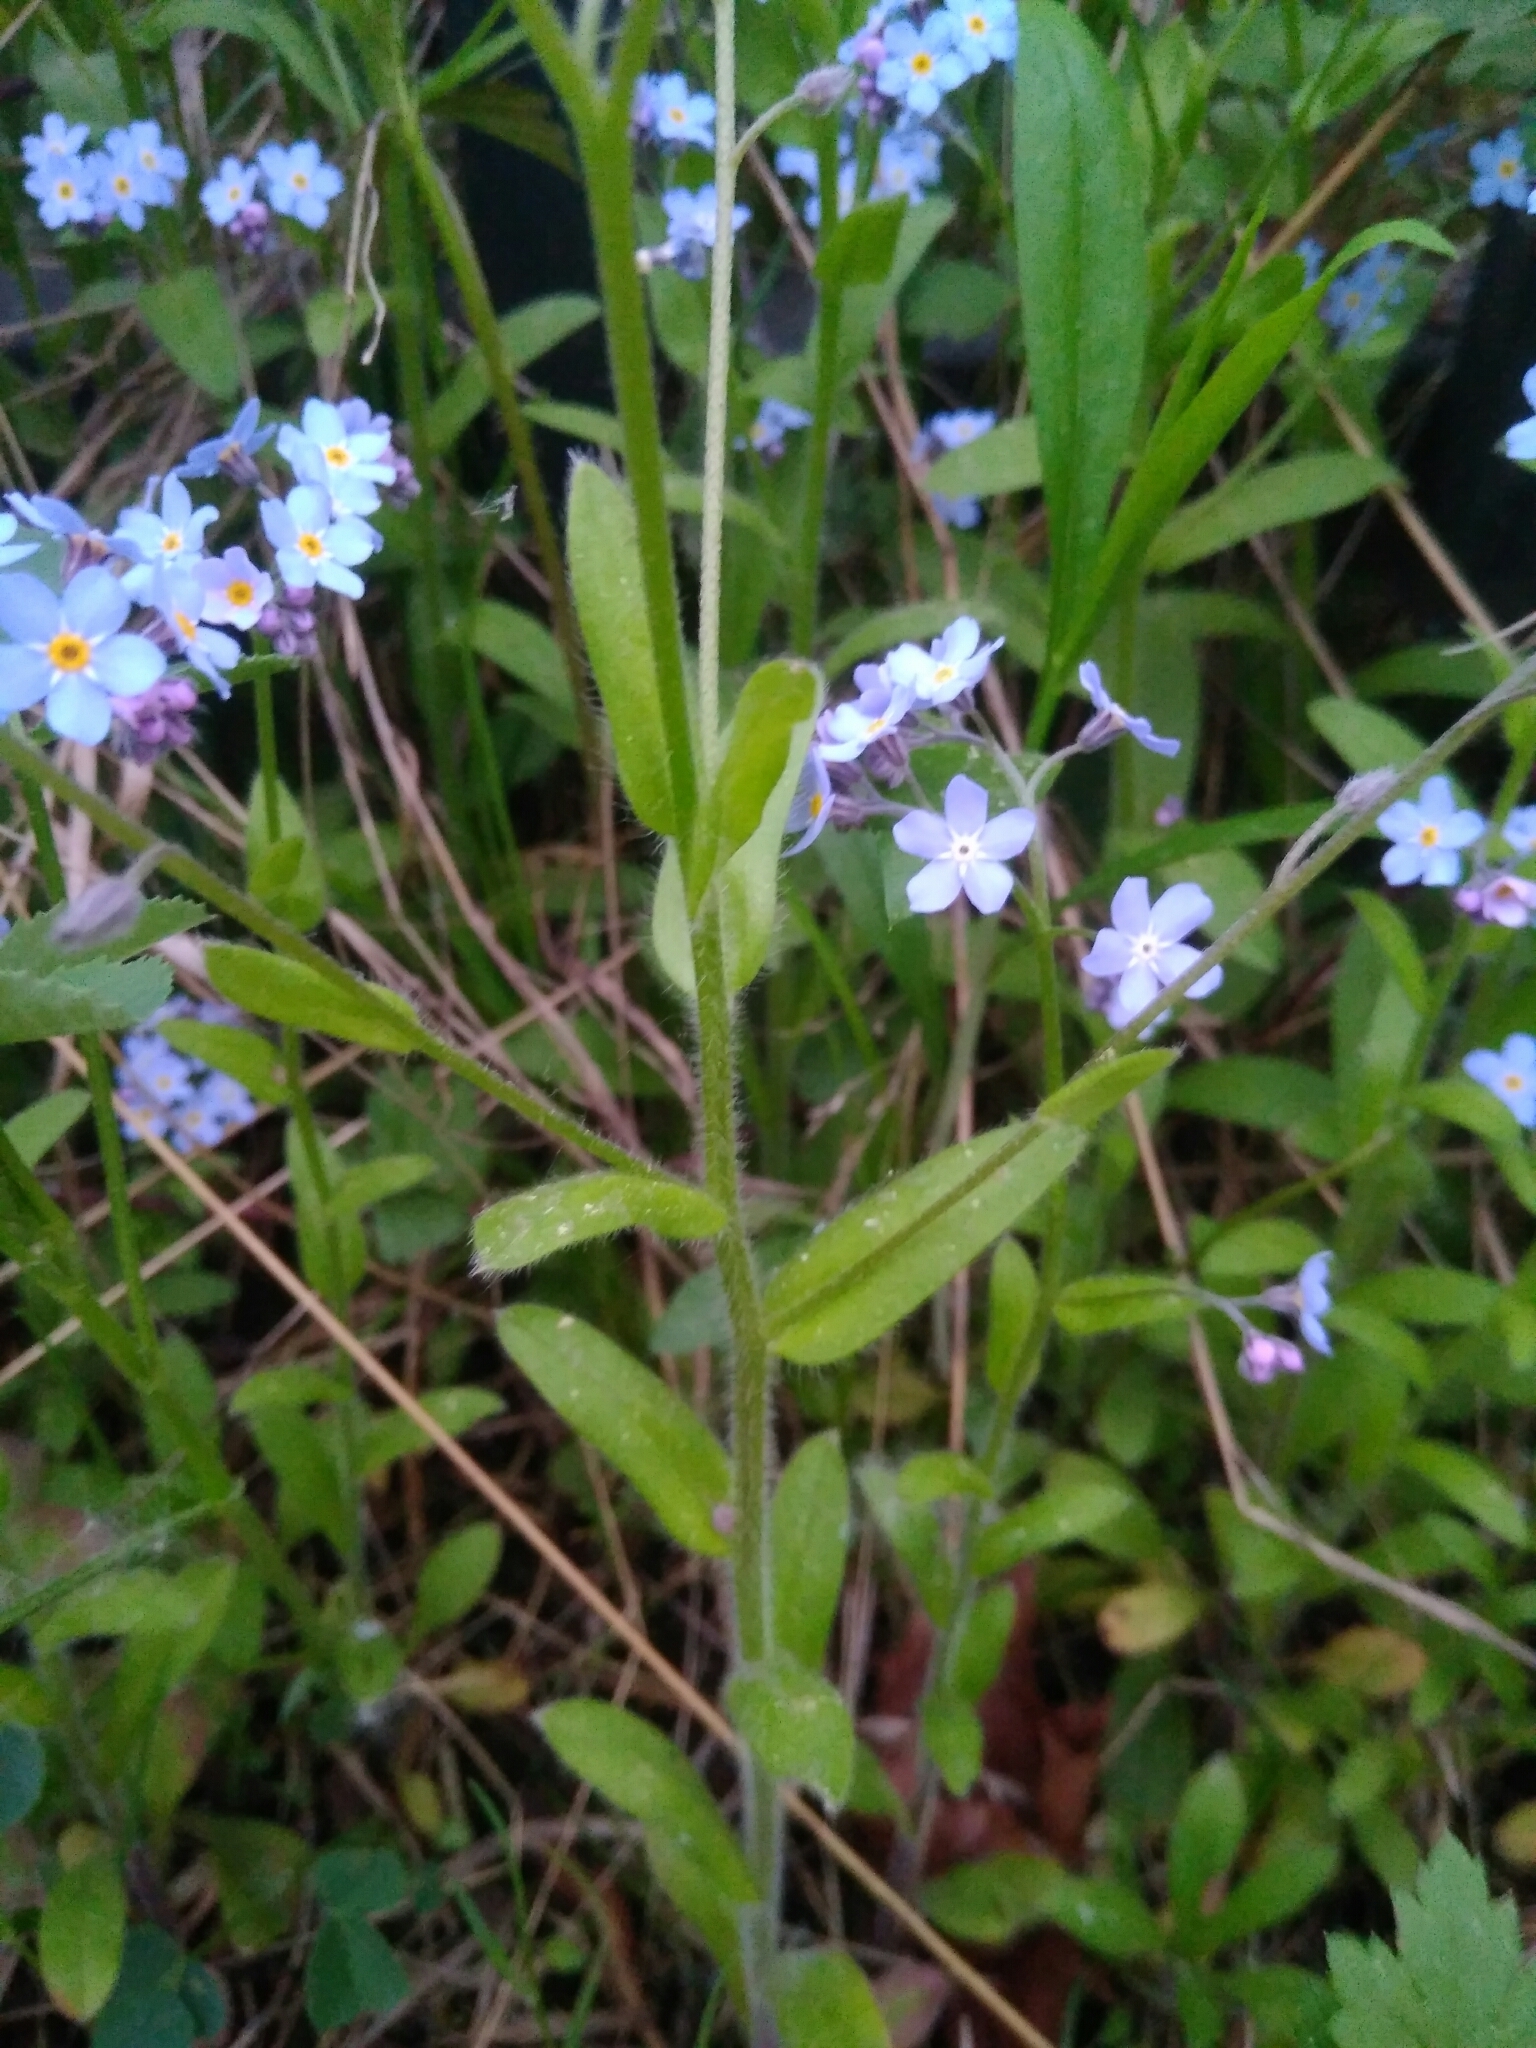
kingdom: Plantae
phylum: Tracheophyta
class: Magnoliopsida
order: Boraginales
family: Boraginaceae
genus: Myosotis
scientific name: Myosotis sylvatica
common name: Wood forget-me-not
